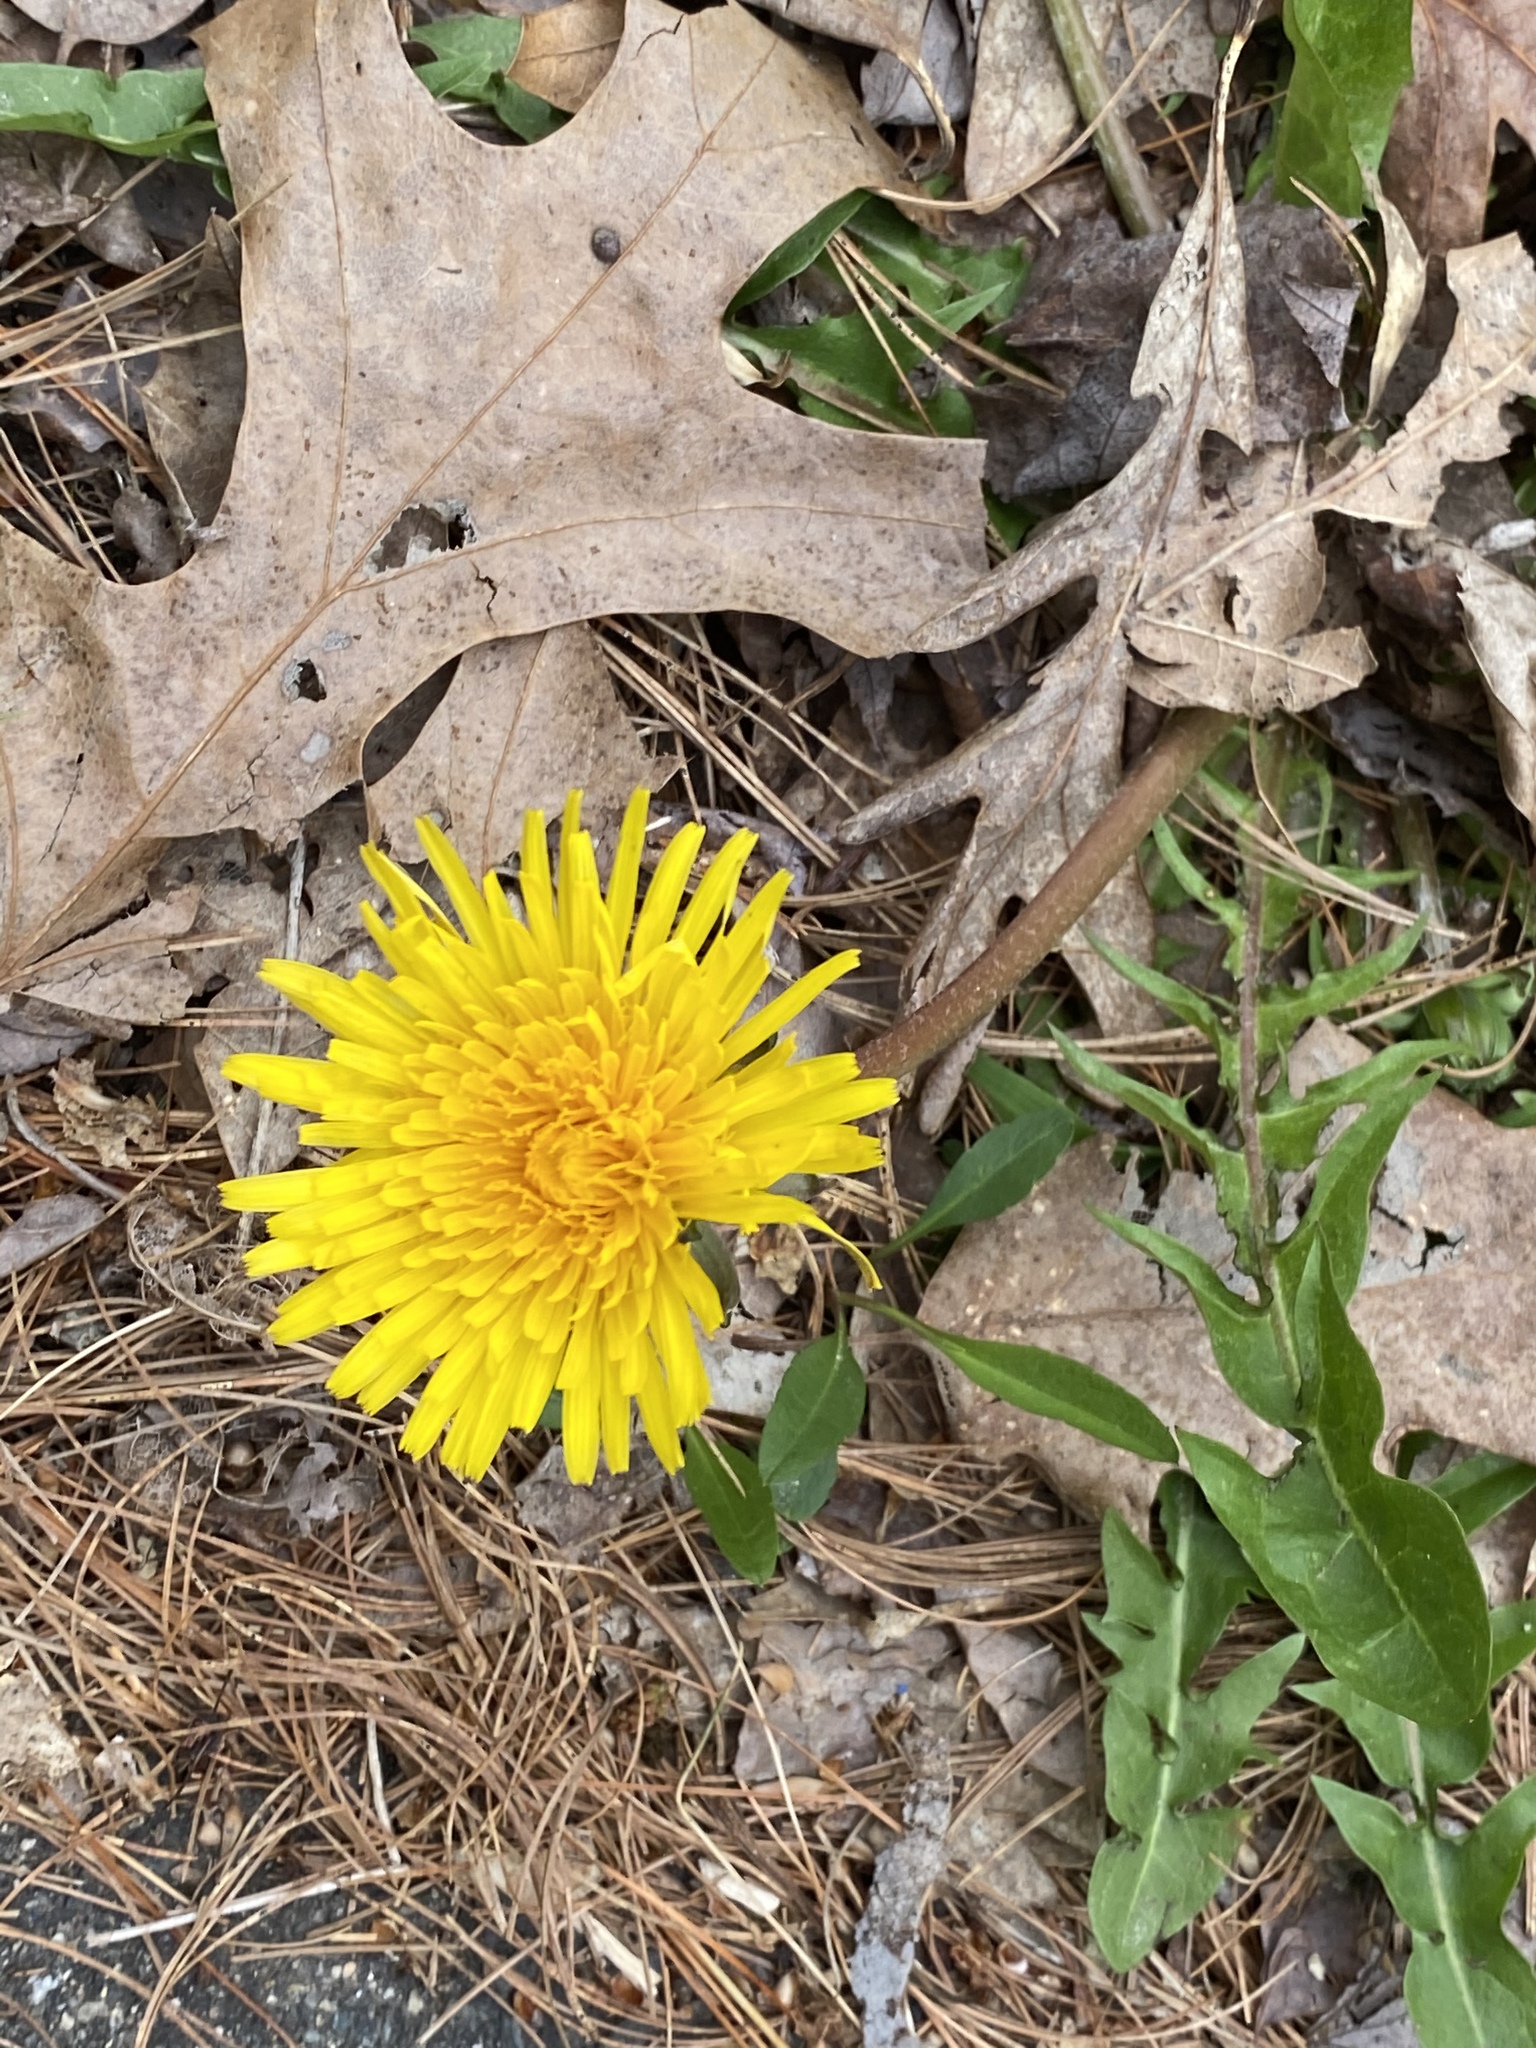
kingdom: Plantae
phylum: Tracheophyta
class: Magnoliopsida
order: Asterales
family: Asteraceae
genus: Taraxacum
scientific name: Taraxacum officinale
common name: Common dandelion
